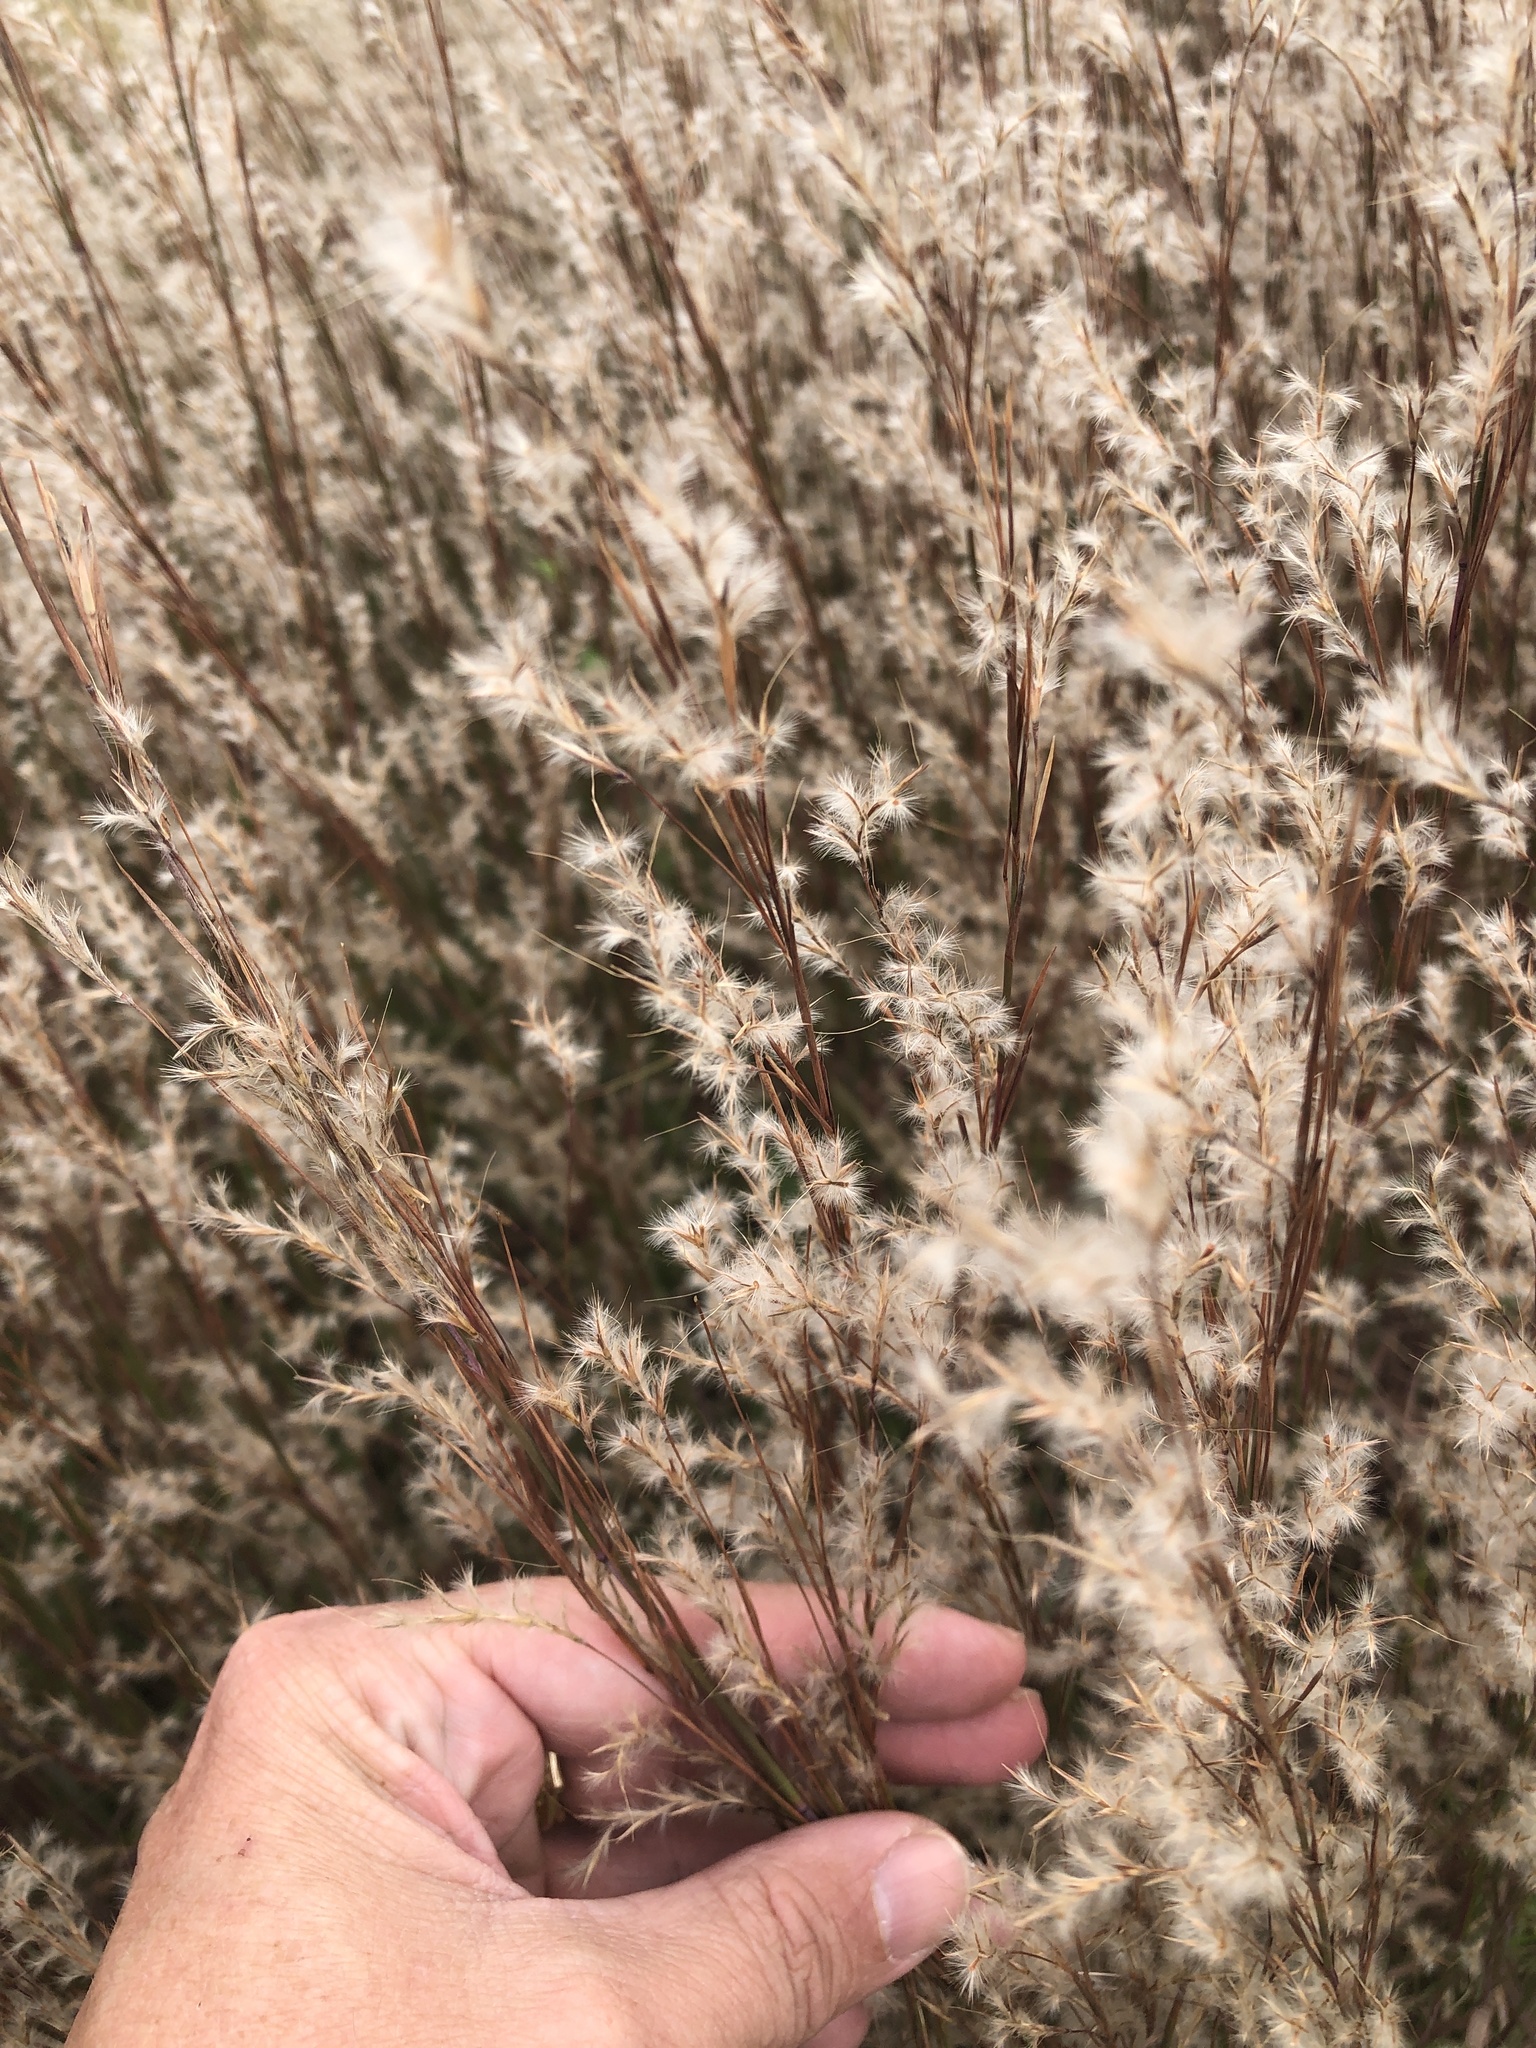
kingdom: Plantae
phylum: Tracheophyta
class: Liliopsida
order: Poales
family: Poaceae
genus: Schizachyrium
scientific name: Schizachyrium scoparium
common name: Little bluestem
